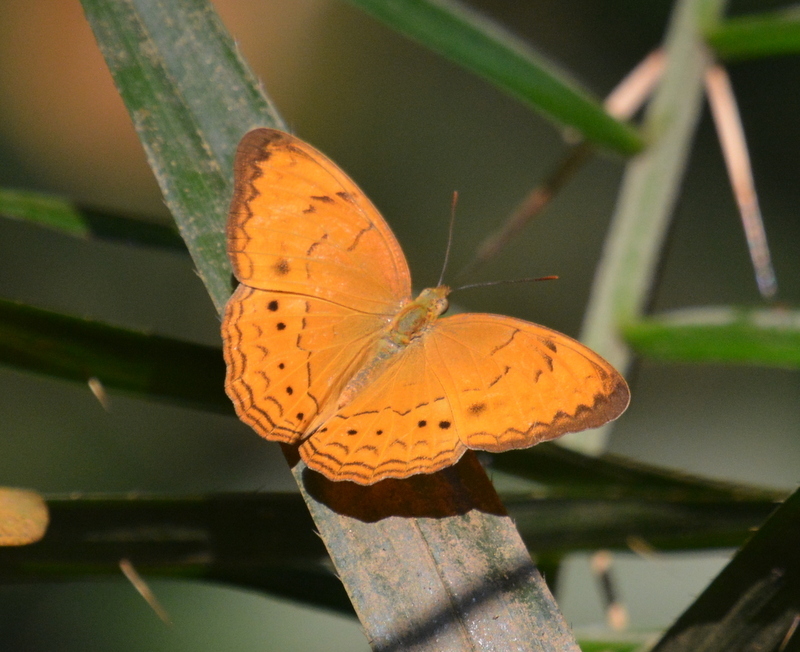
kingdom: Animalia
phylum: Arthropoda
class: Insecta
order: Lepidoptera
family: Nymphalidae
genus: Cirrochroa
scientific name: Cirrochroa tyche
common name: Common yeoman
